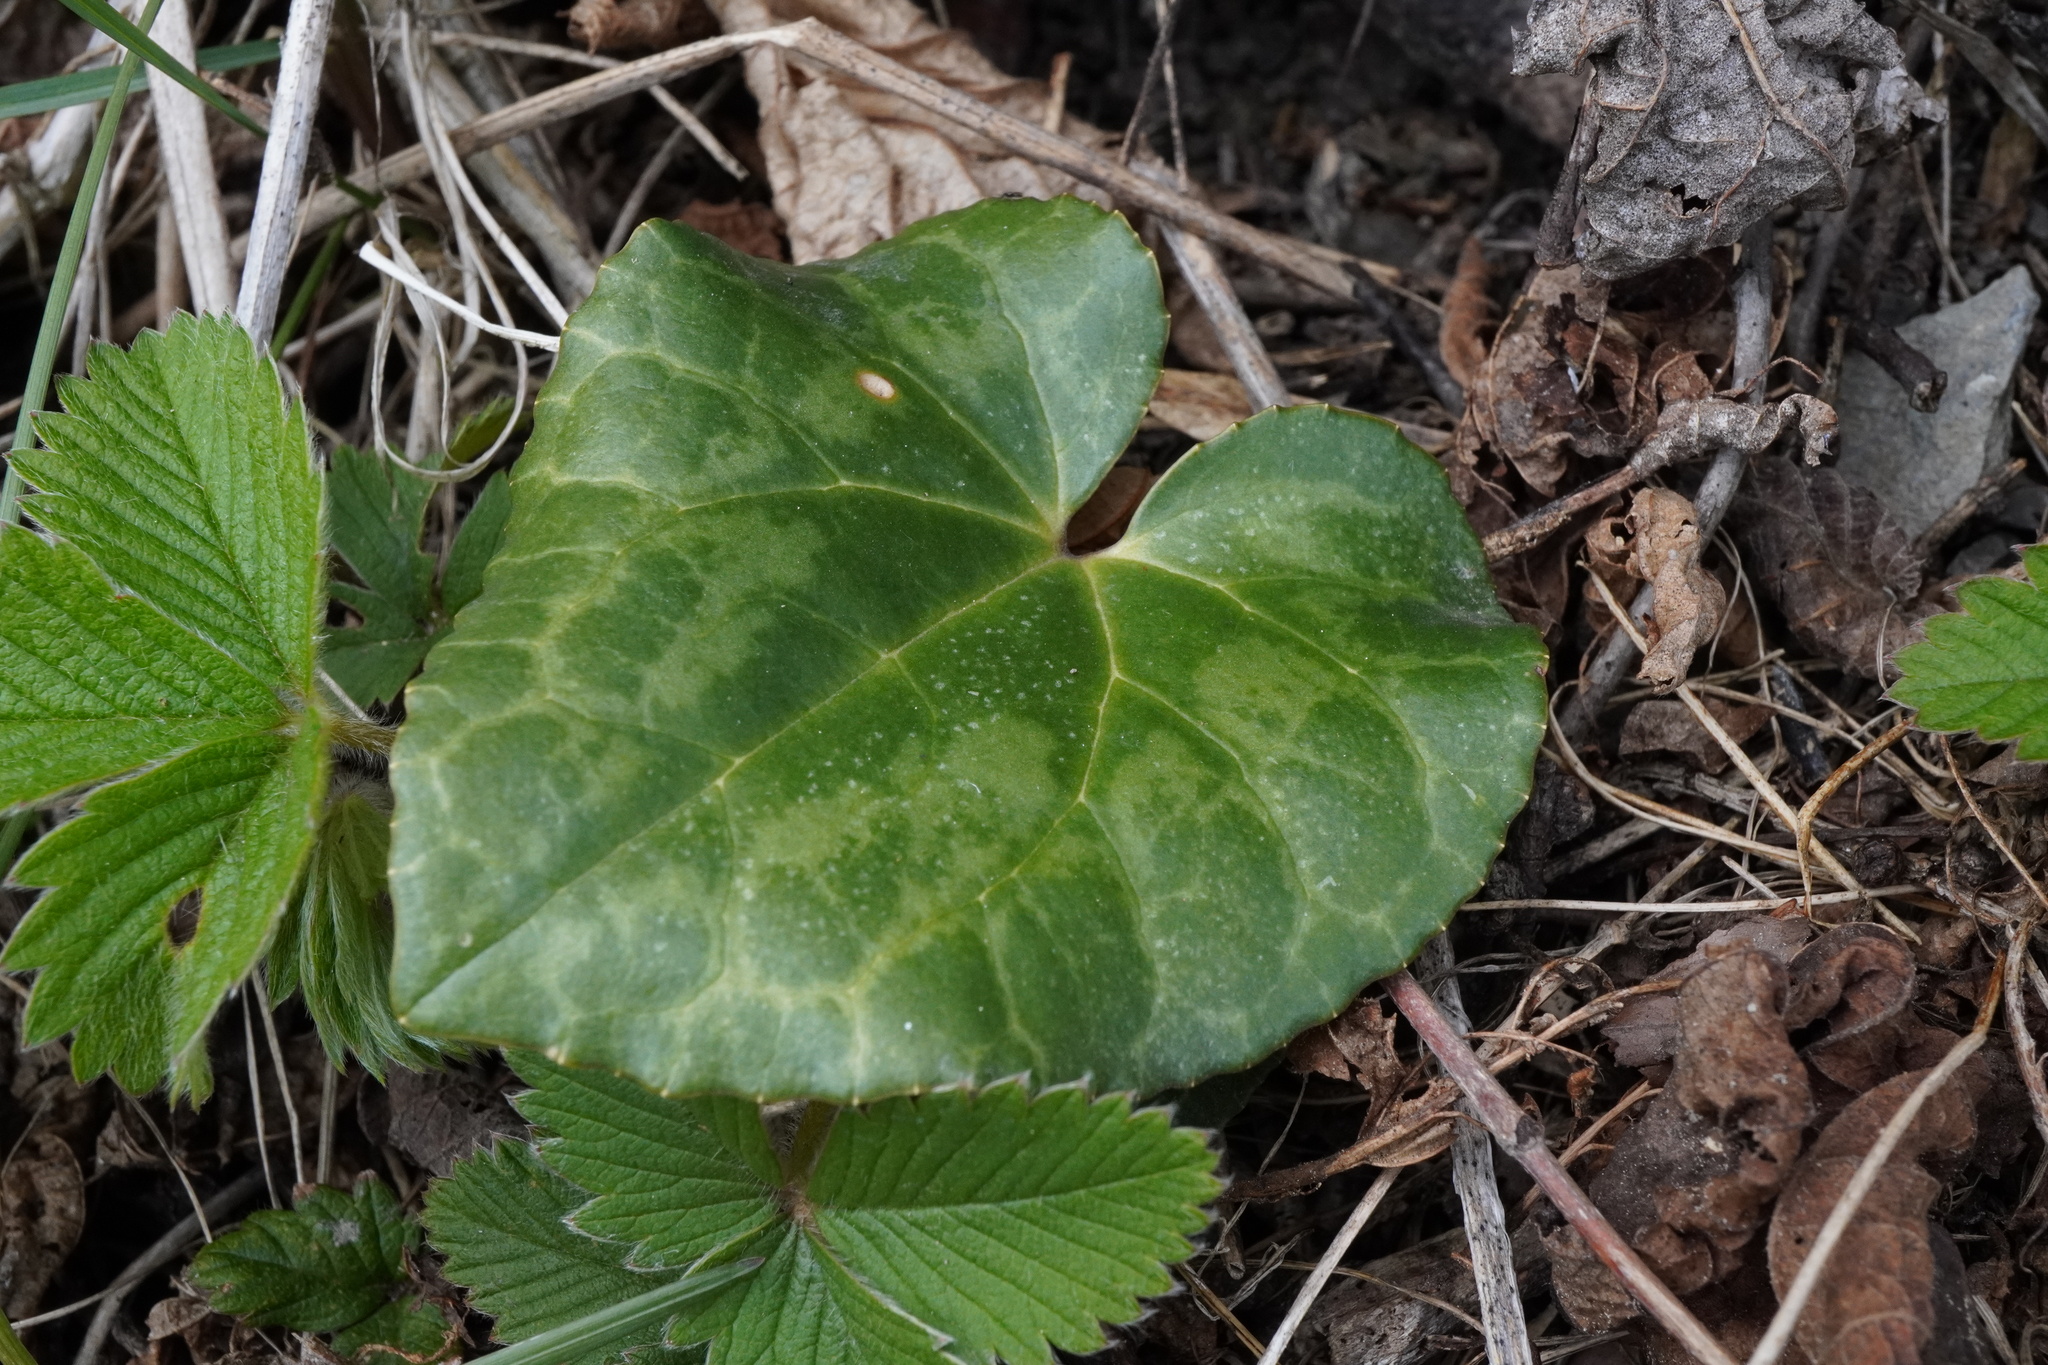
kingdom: Plantae
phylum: Tracheophyta
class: Magnoliopsida
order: Ericales
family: Primulaceae
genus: Cyclamen
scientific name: Cyclamen purpurascens
